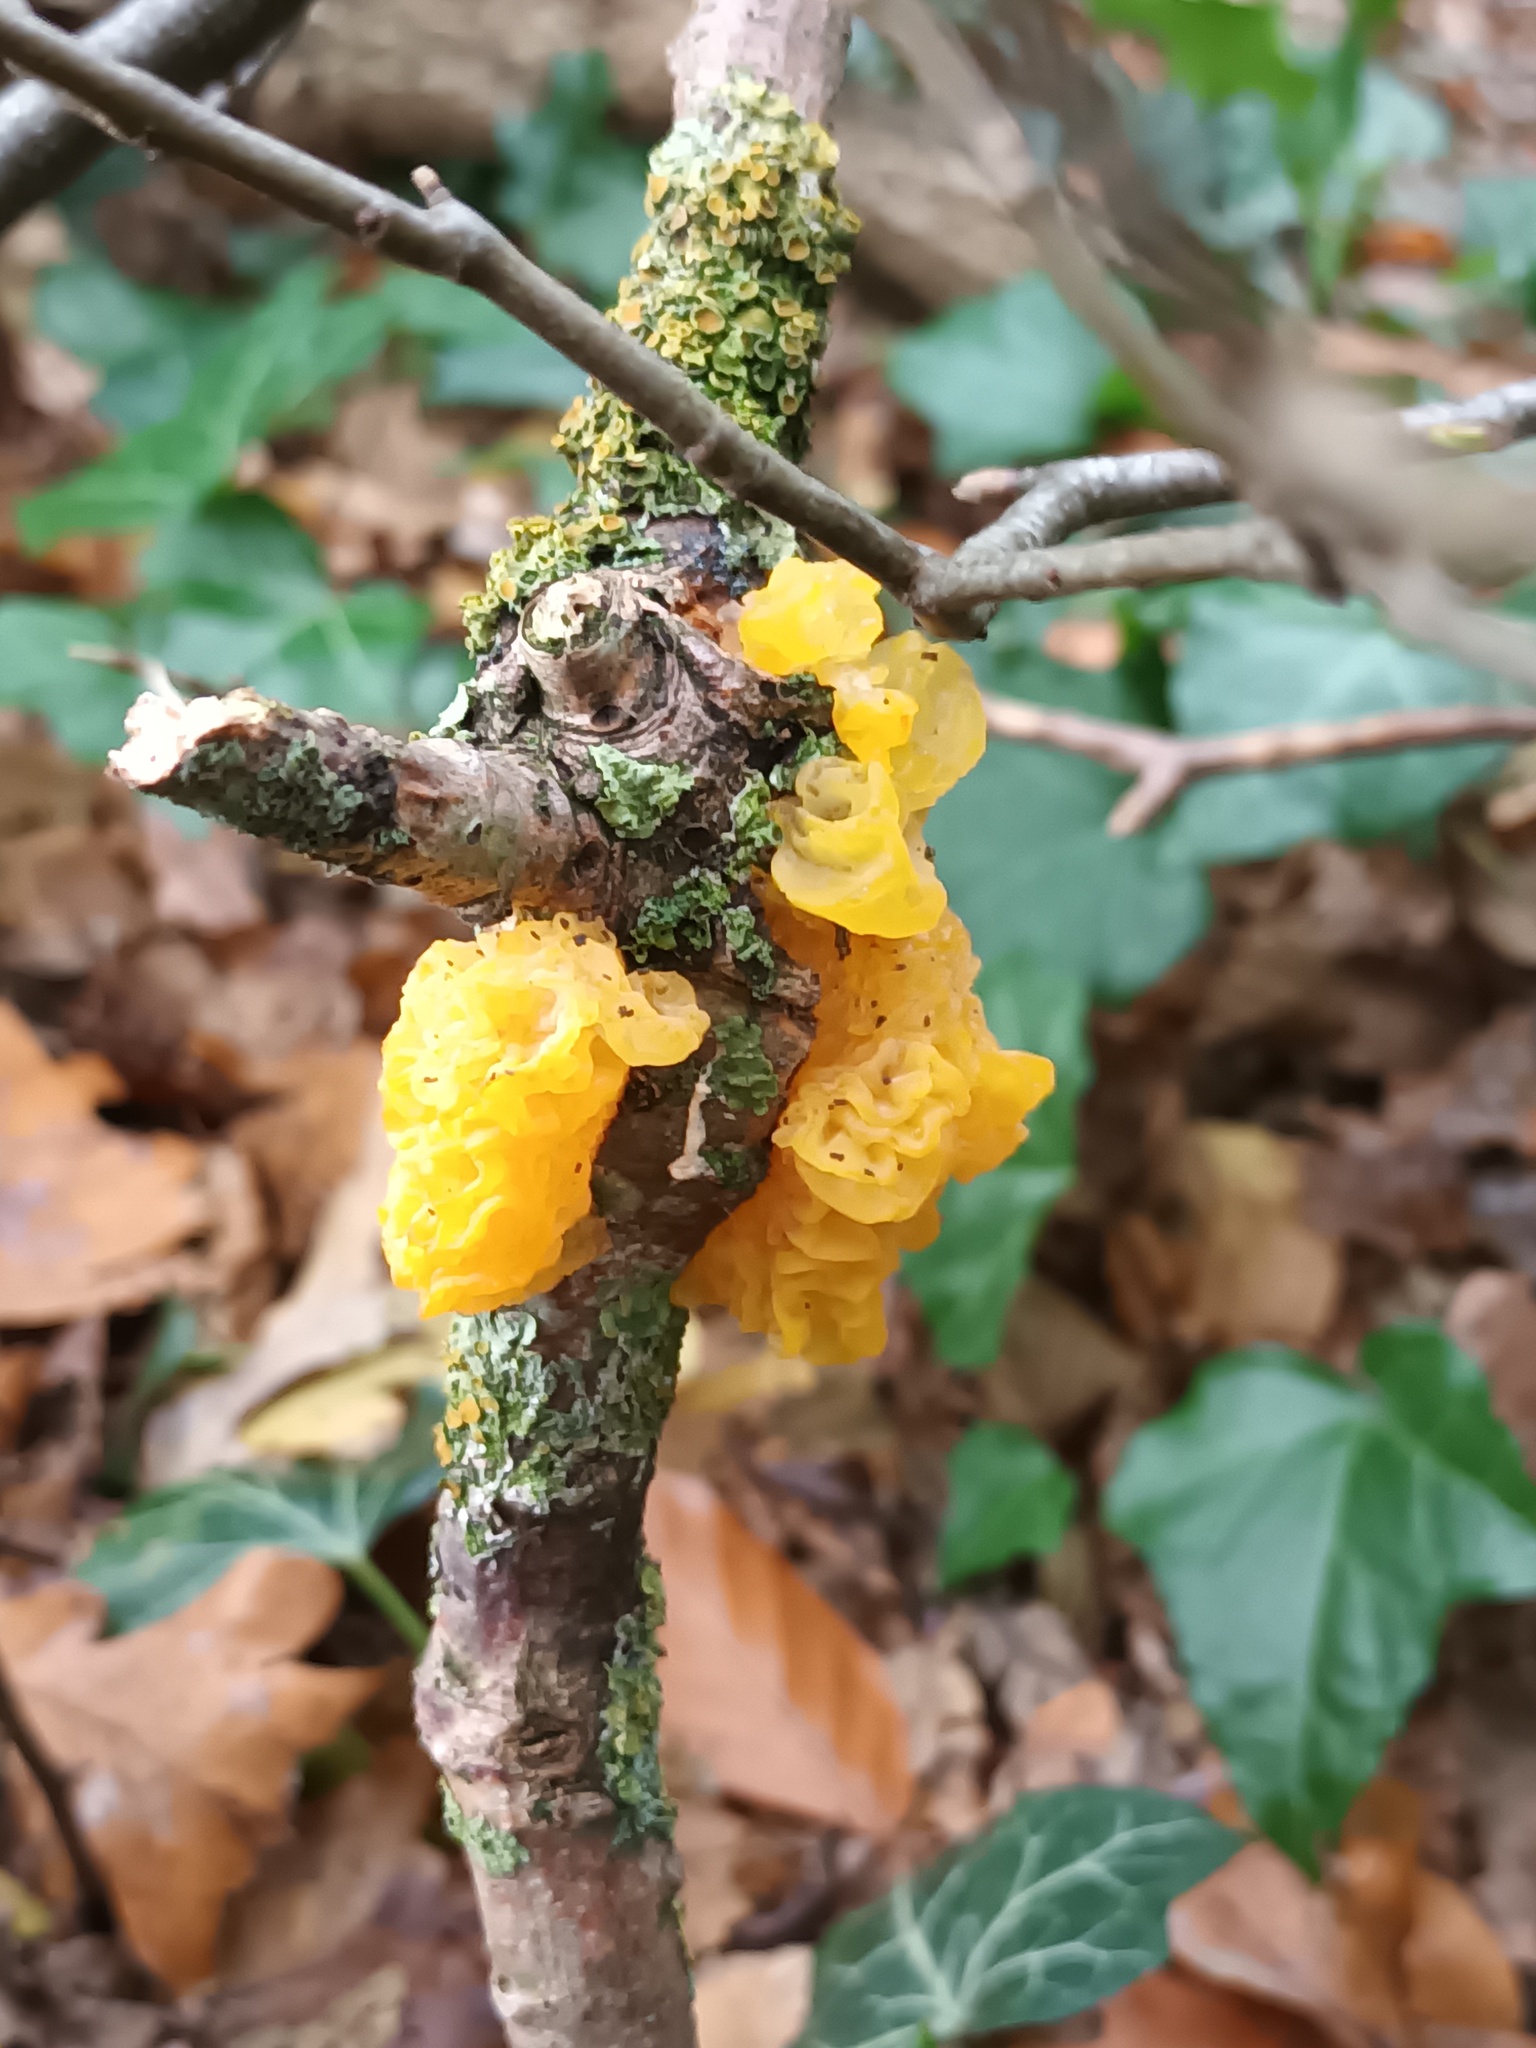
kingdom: Fungi
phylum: Basidiomycota
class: Tremellomycetes
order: Tremellales
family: Tremellaceae
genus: Tremella
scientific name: Tremella mesenterica
